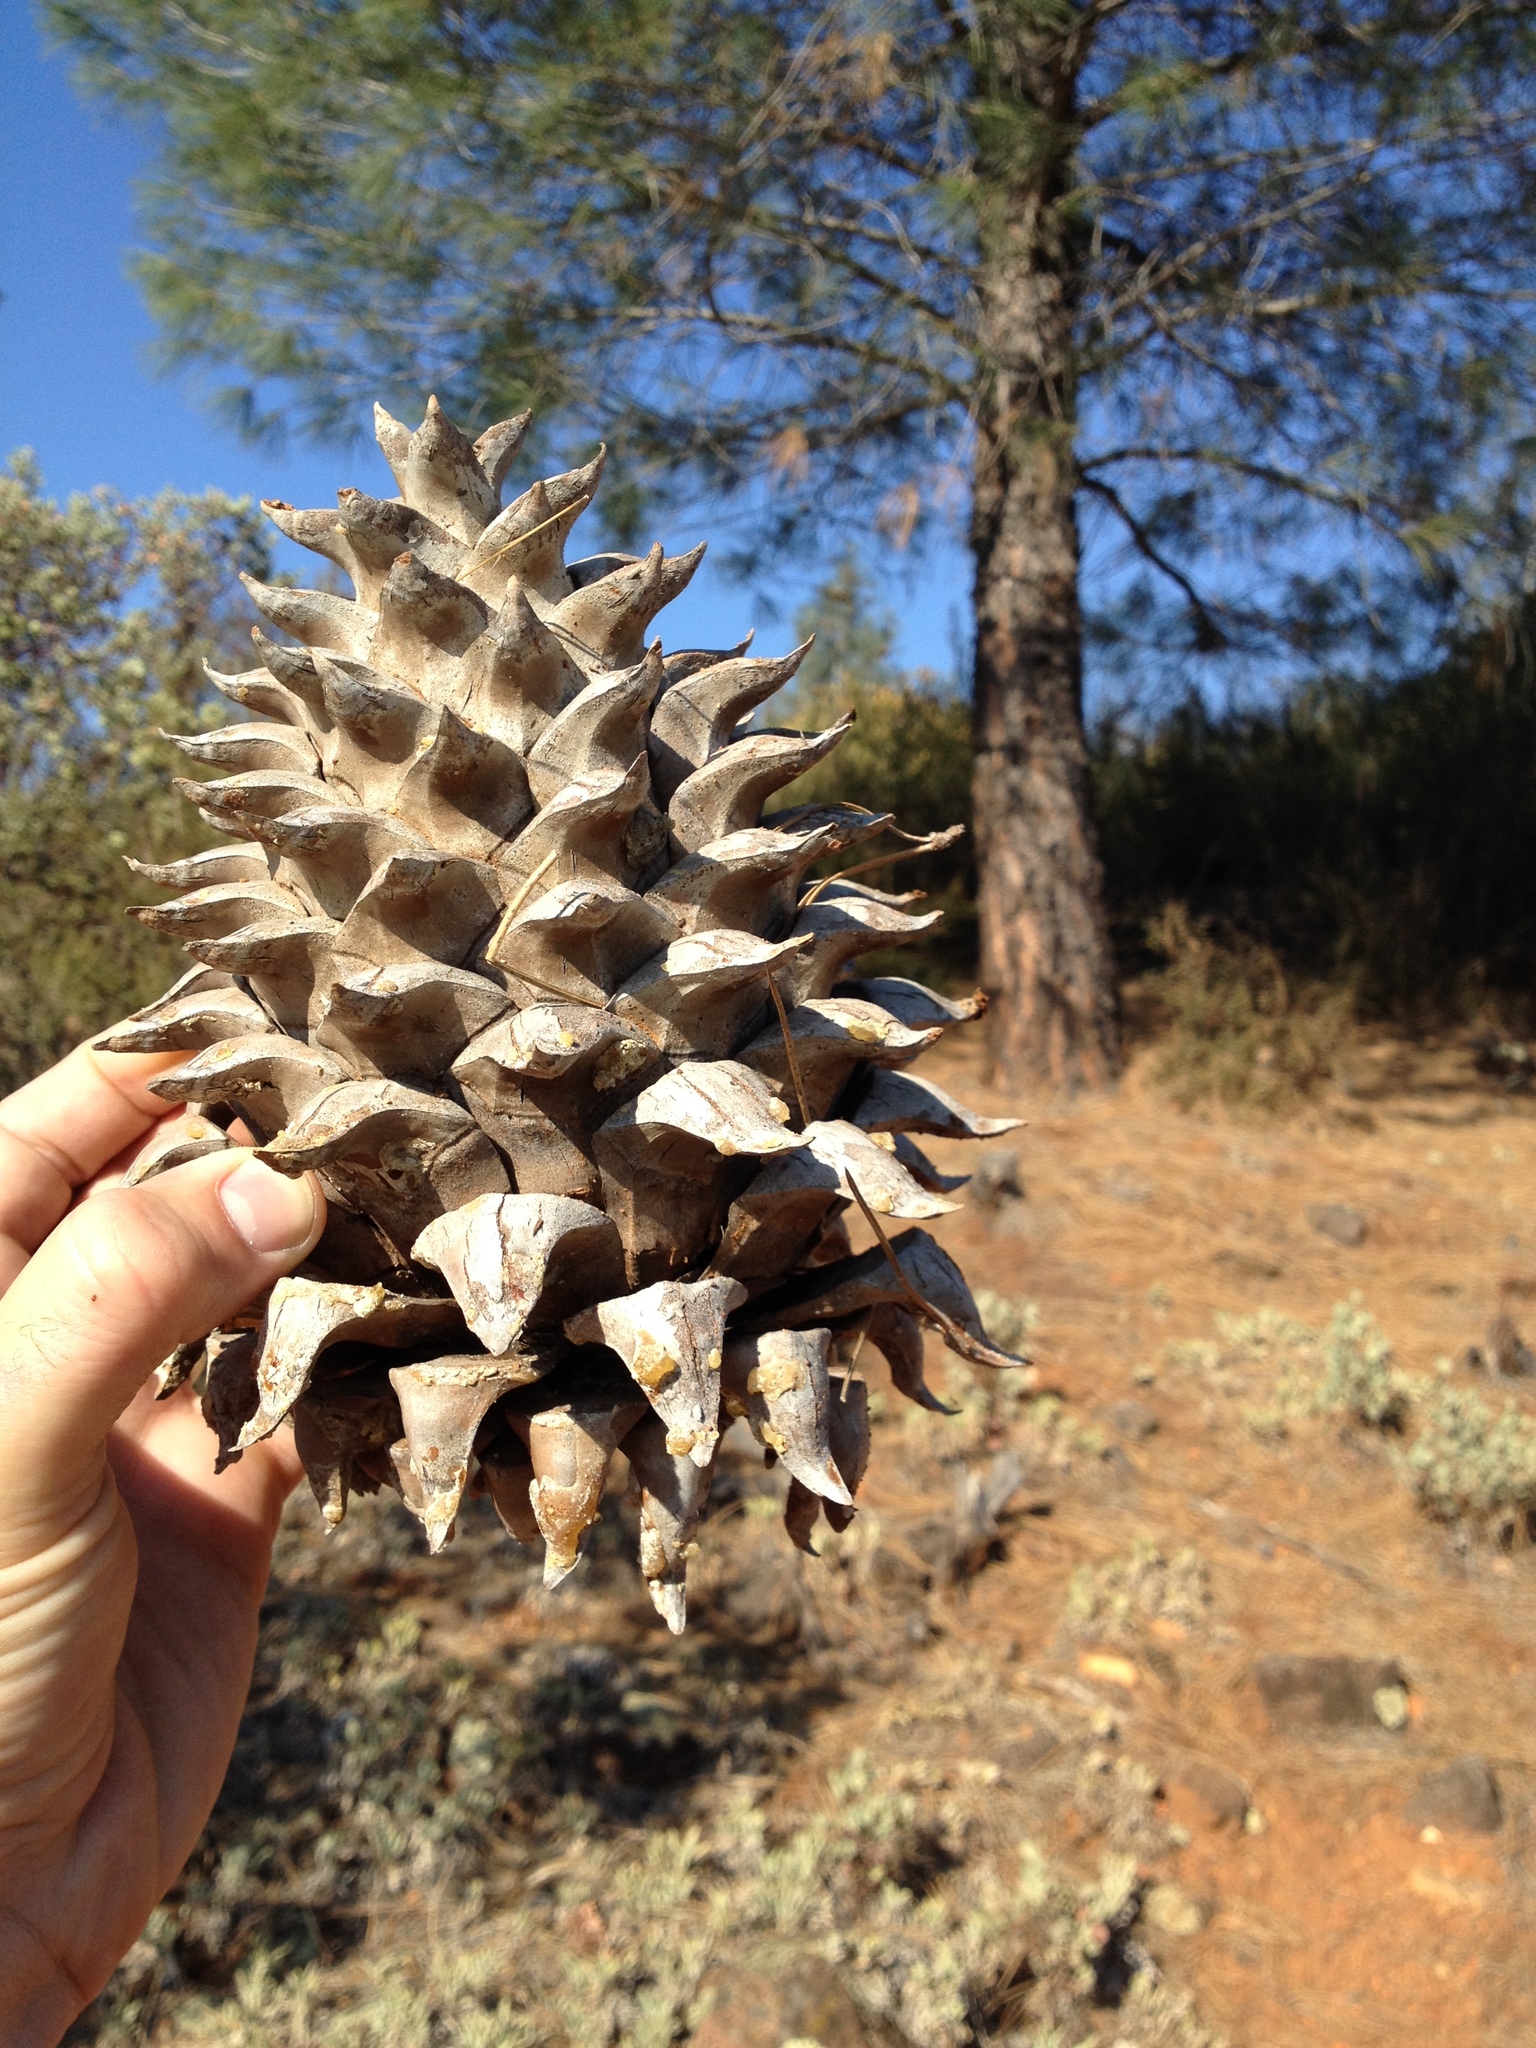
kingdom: Plantae
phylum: Tracheophyta
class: Pinopsida
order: Pinales
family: Pinaceae
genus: Pinus
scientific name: Pinus sabiniana
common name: Bull pine
